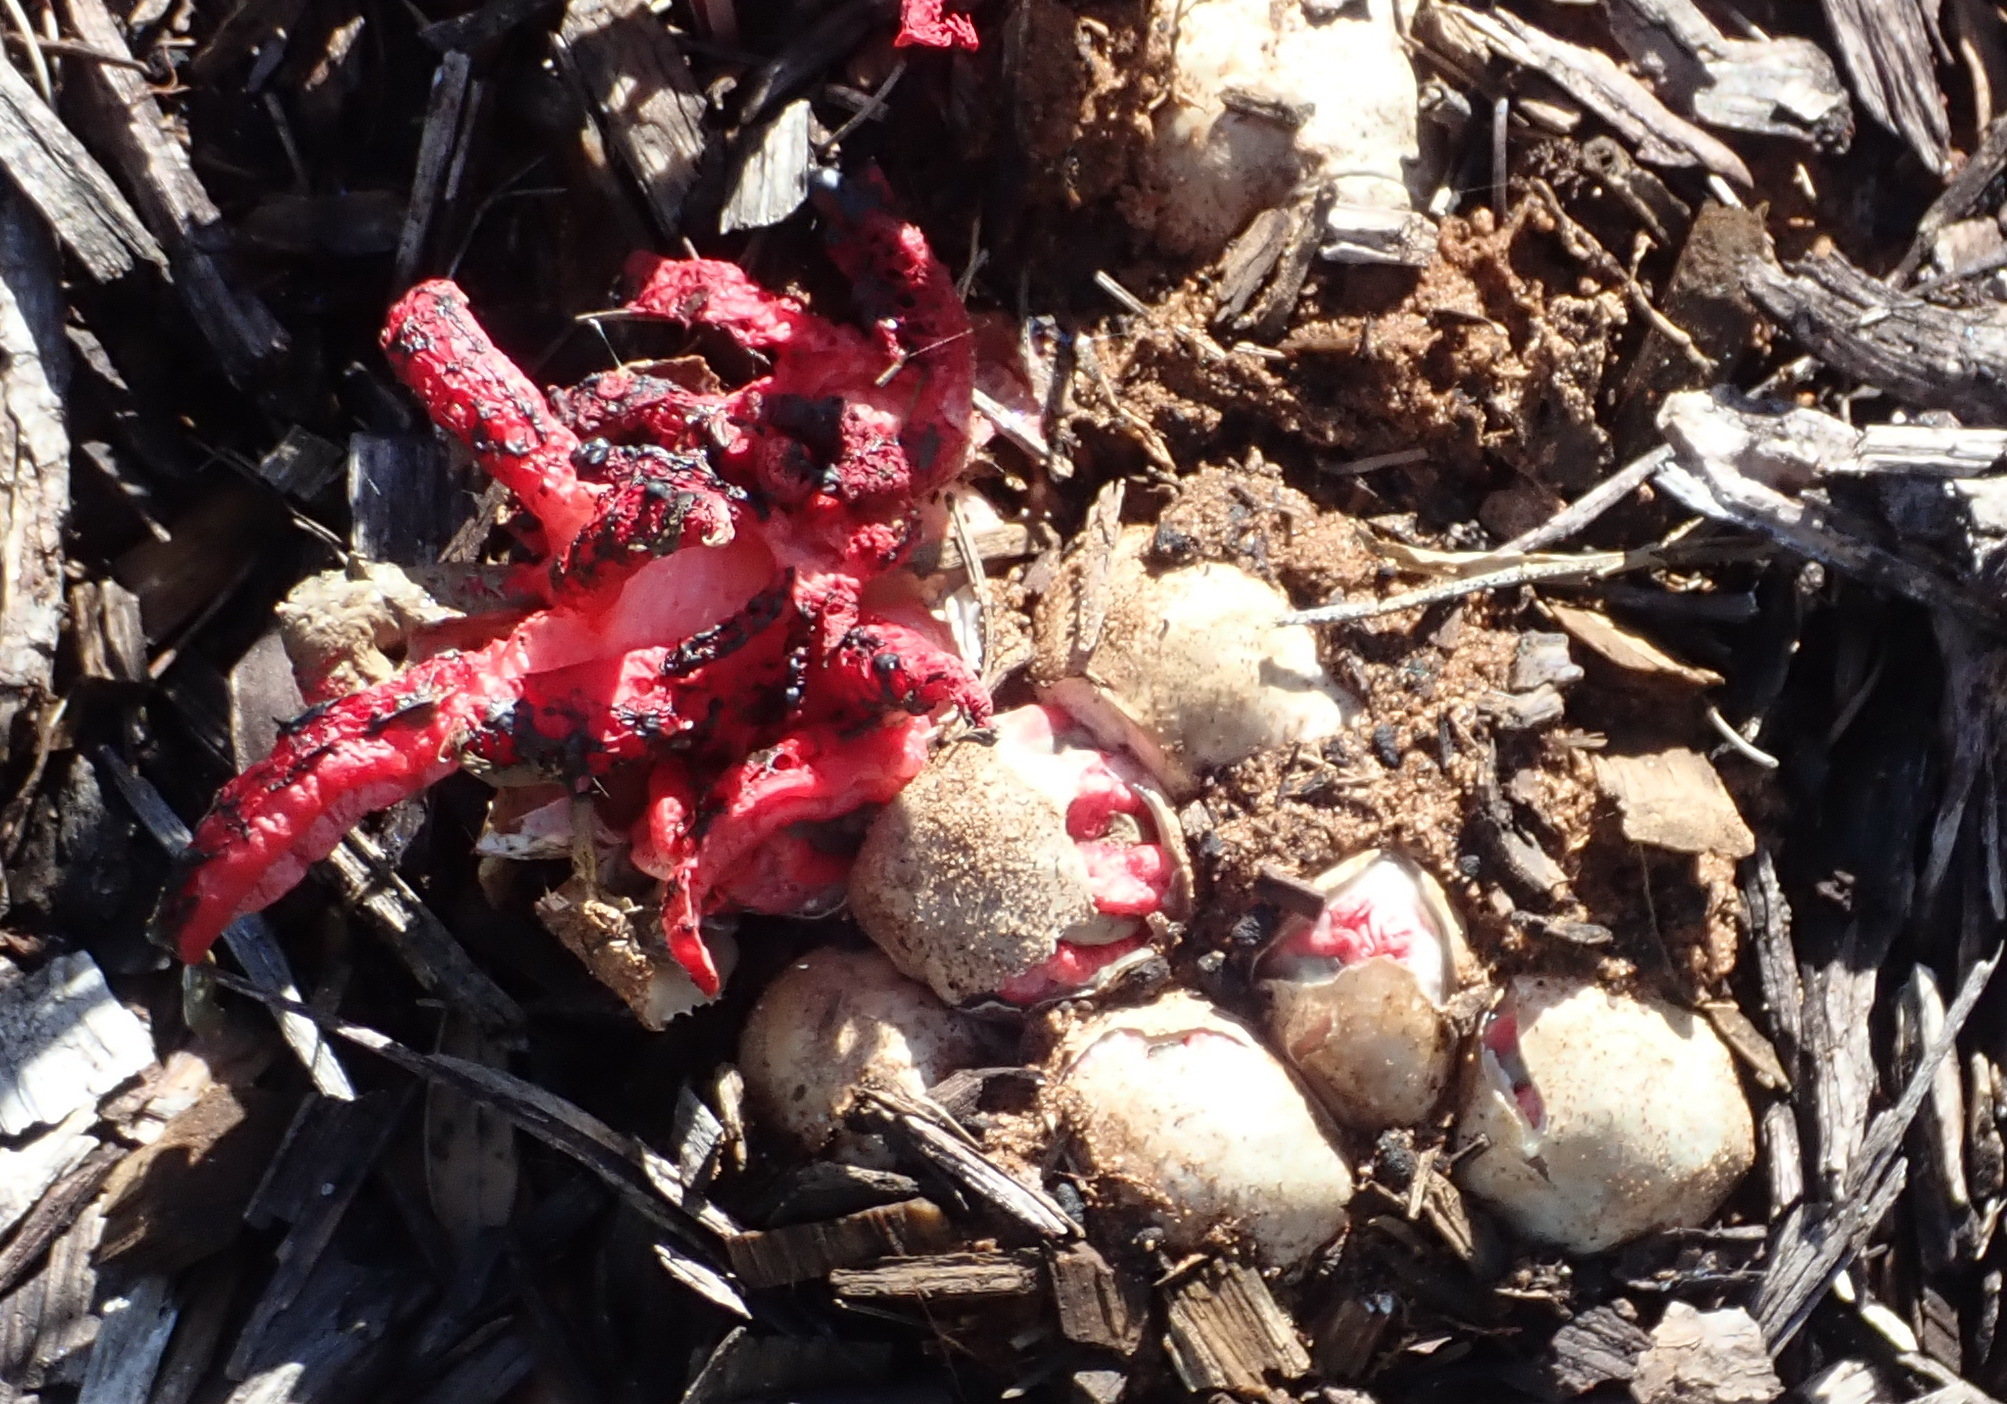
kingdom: Fungi
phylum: Basidiomycota
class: Agaricomycetes
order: Phallales
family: Phallaceae
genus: Clathrus
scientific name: Clathrus archeri
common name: Devil's fingers
